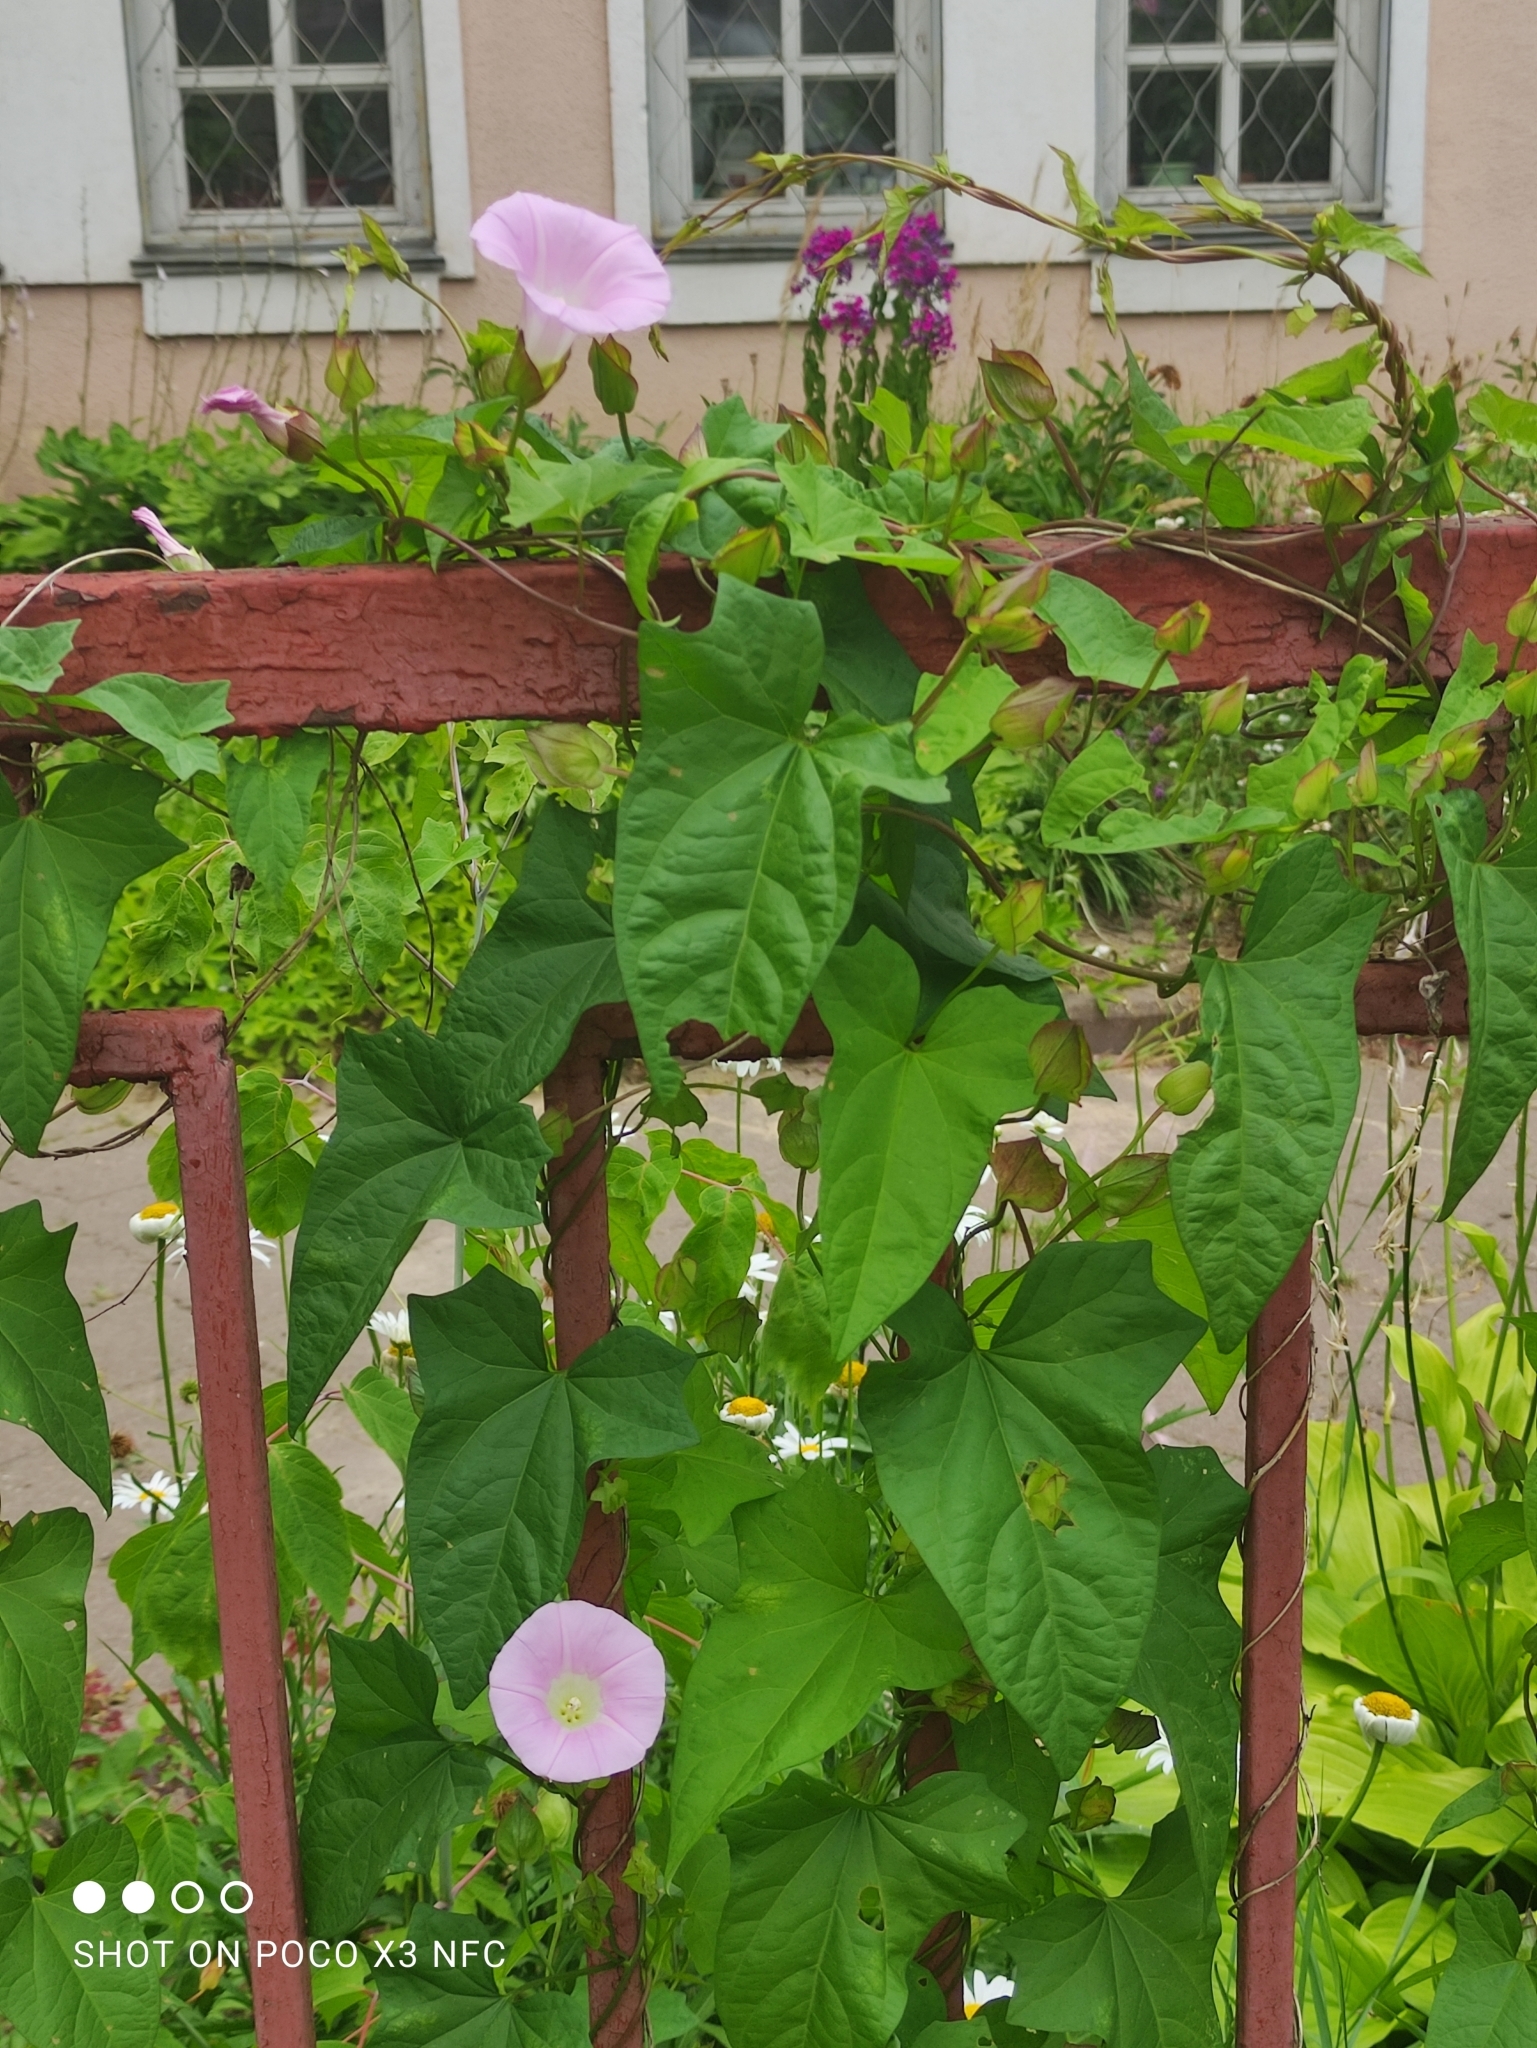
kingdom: Plantae
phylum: Tracheophyta
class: Magnoliopsida
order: Solanales
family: Convolvulaceae
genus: Calystegia
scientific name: Calystegia sepium
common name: Hedge bindweed
